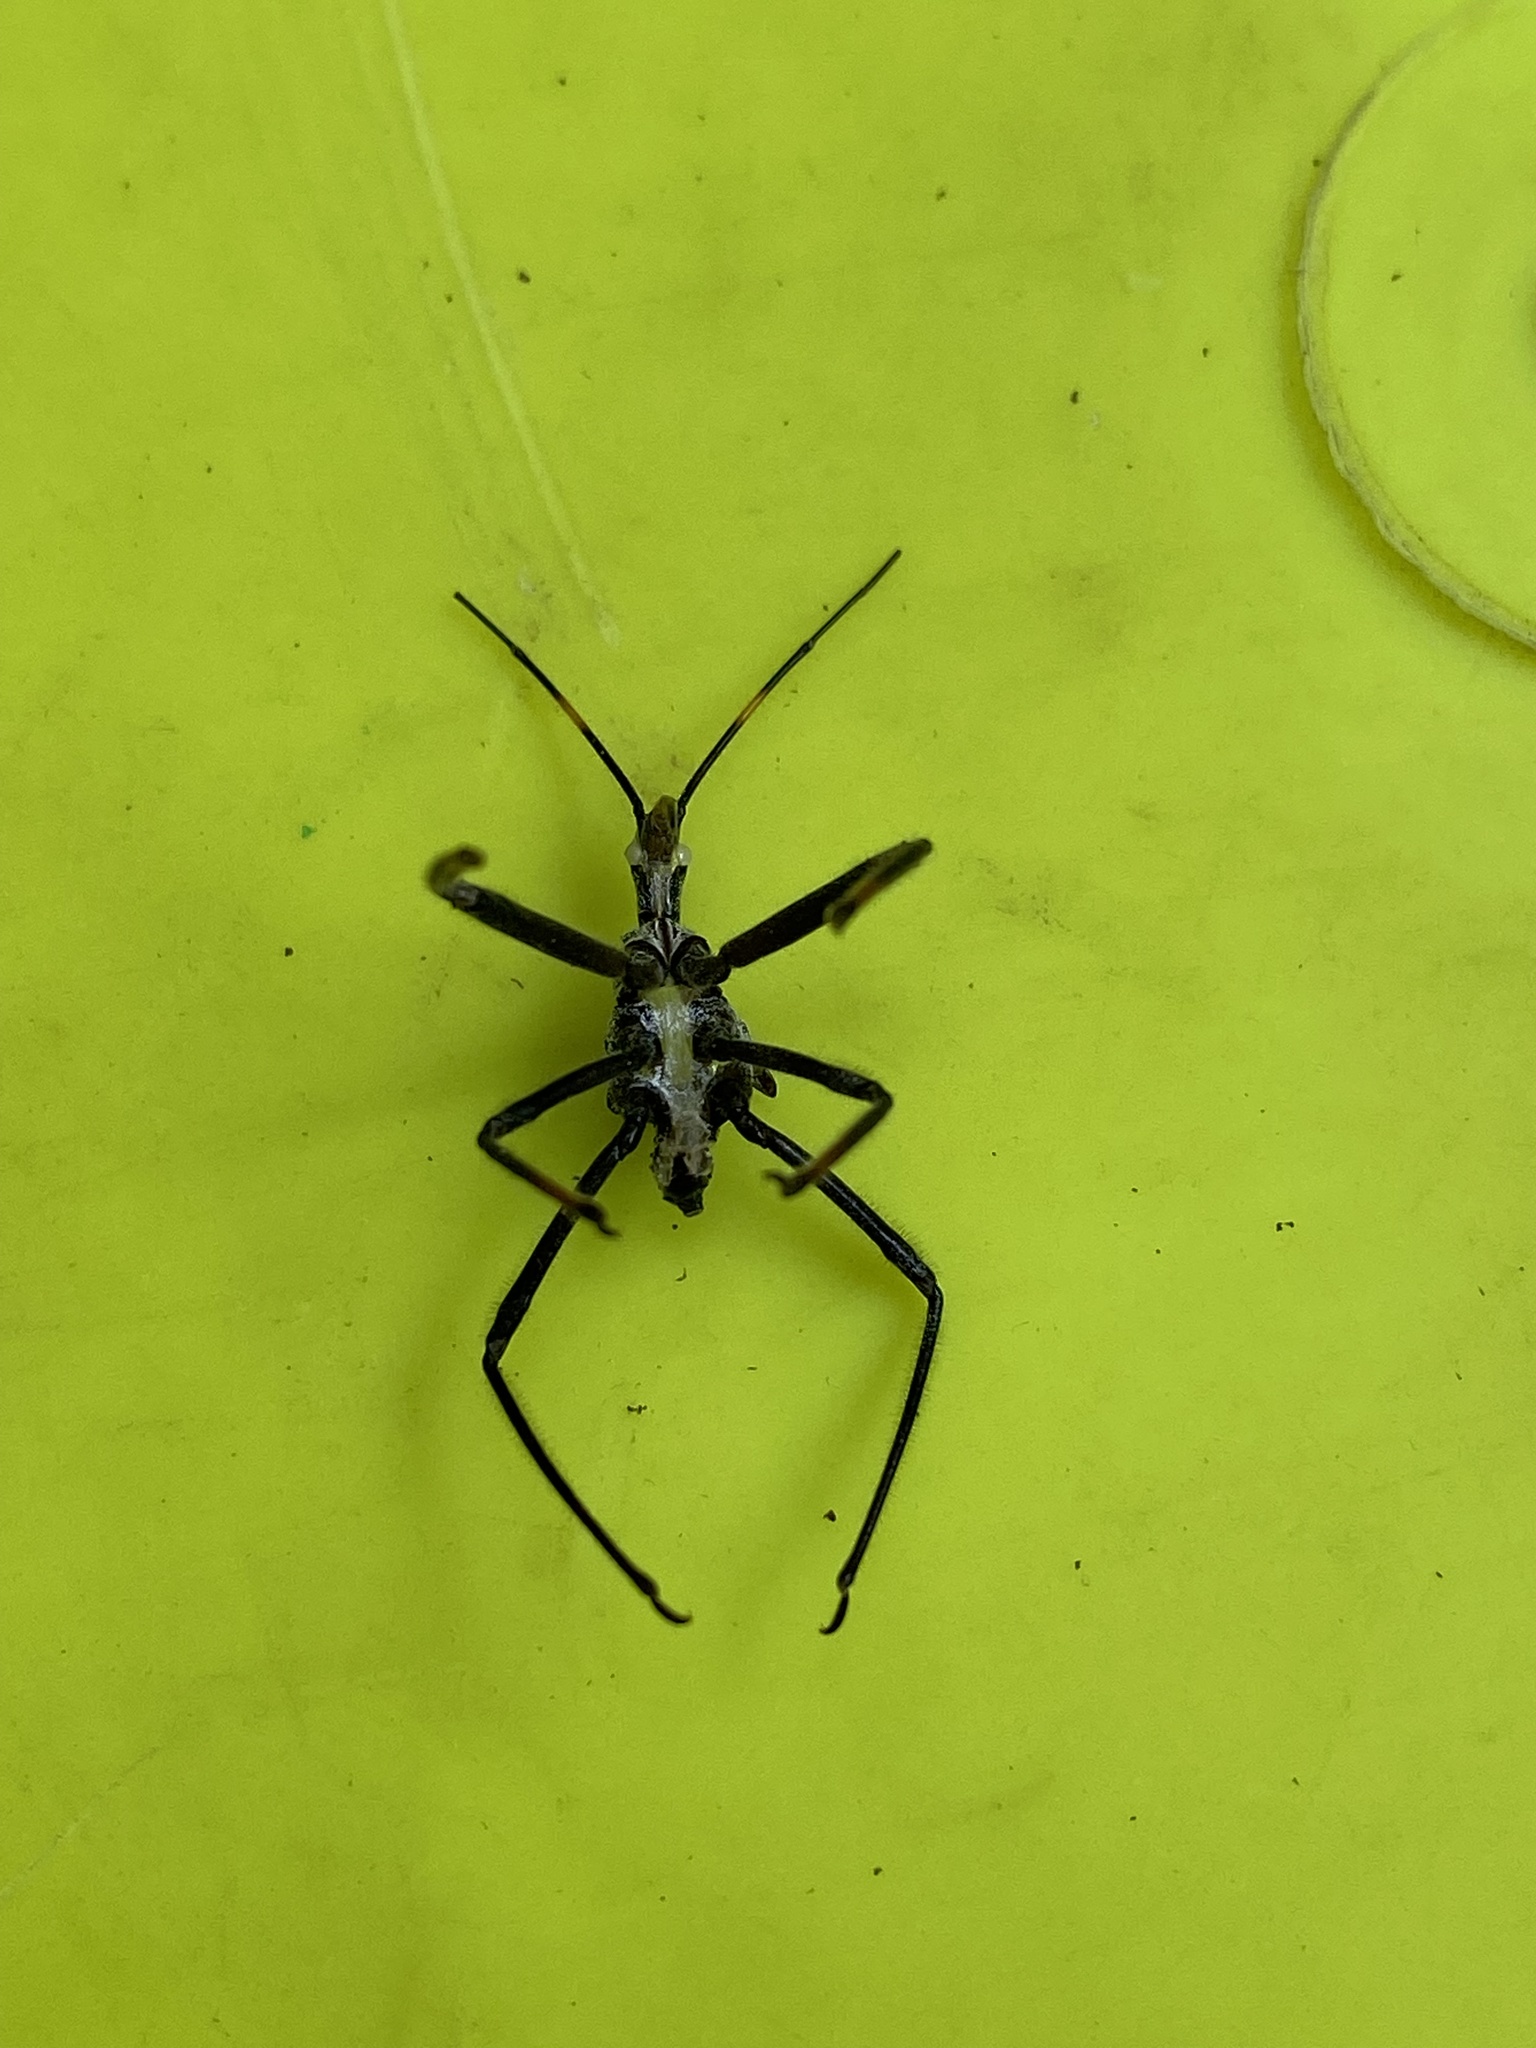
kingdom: Animalia
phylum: Arthropoda
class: Insecta
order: Hemiptera
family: Reduviidae
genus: Arilus
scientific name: Arilus cristatus
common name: North american wheel bug
